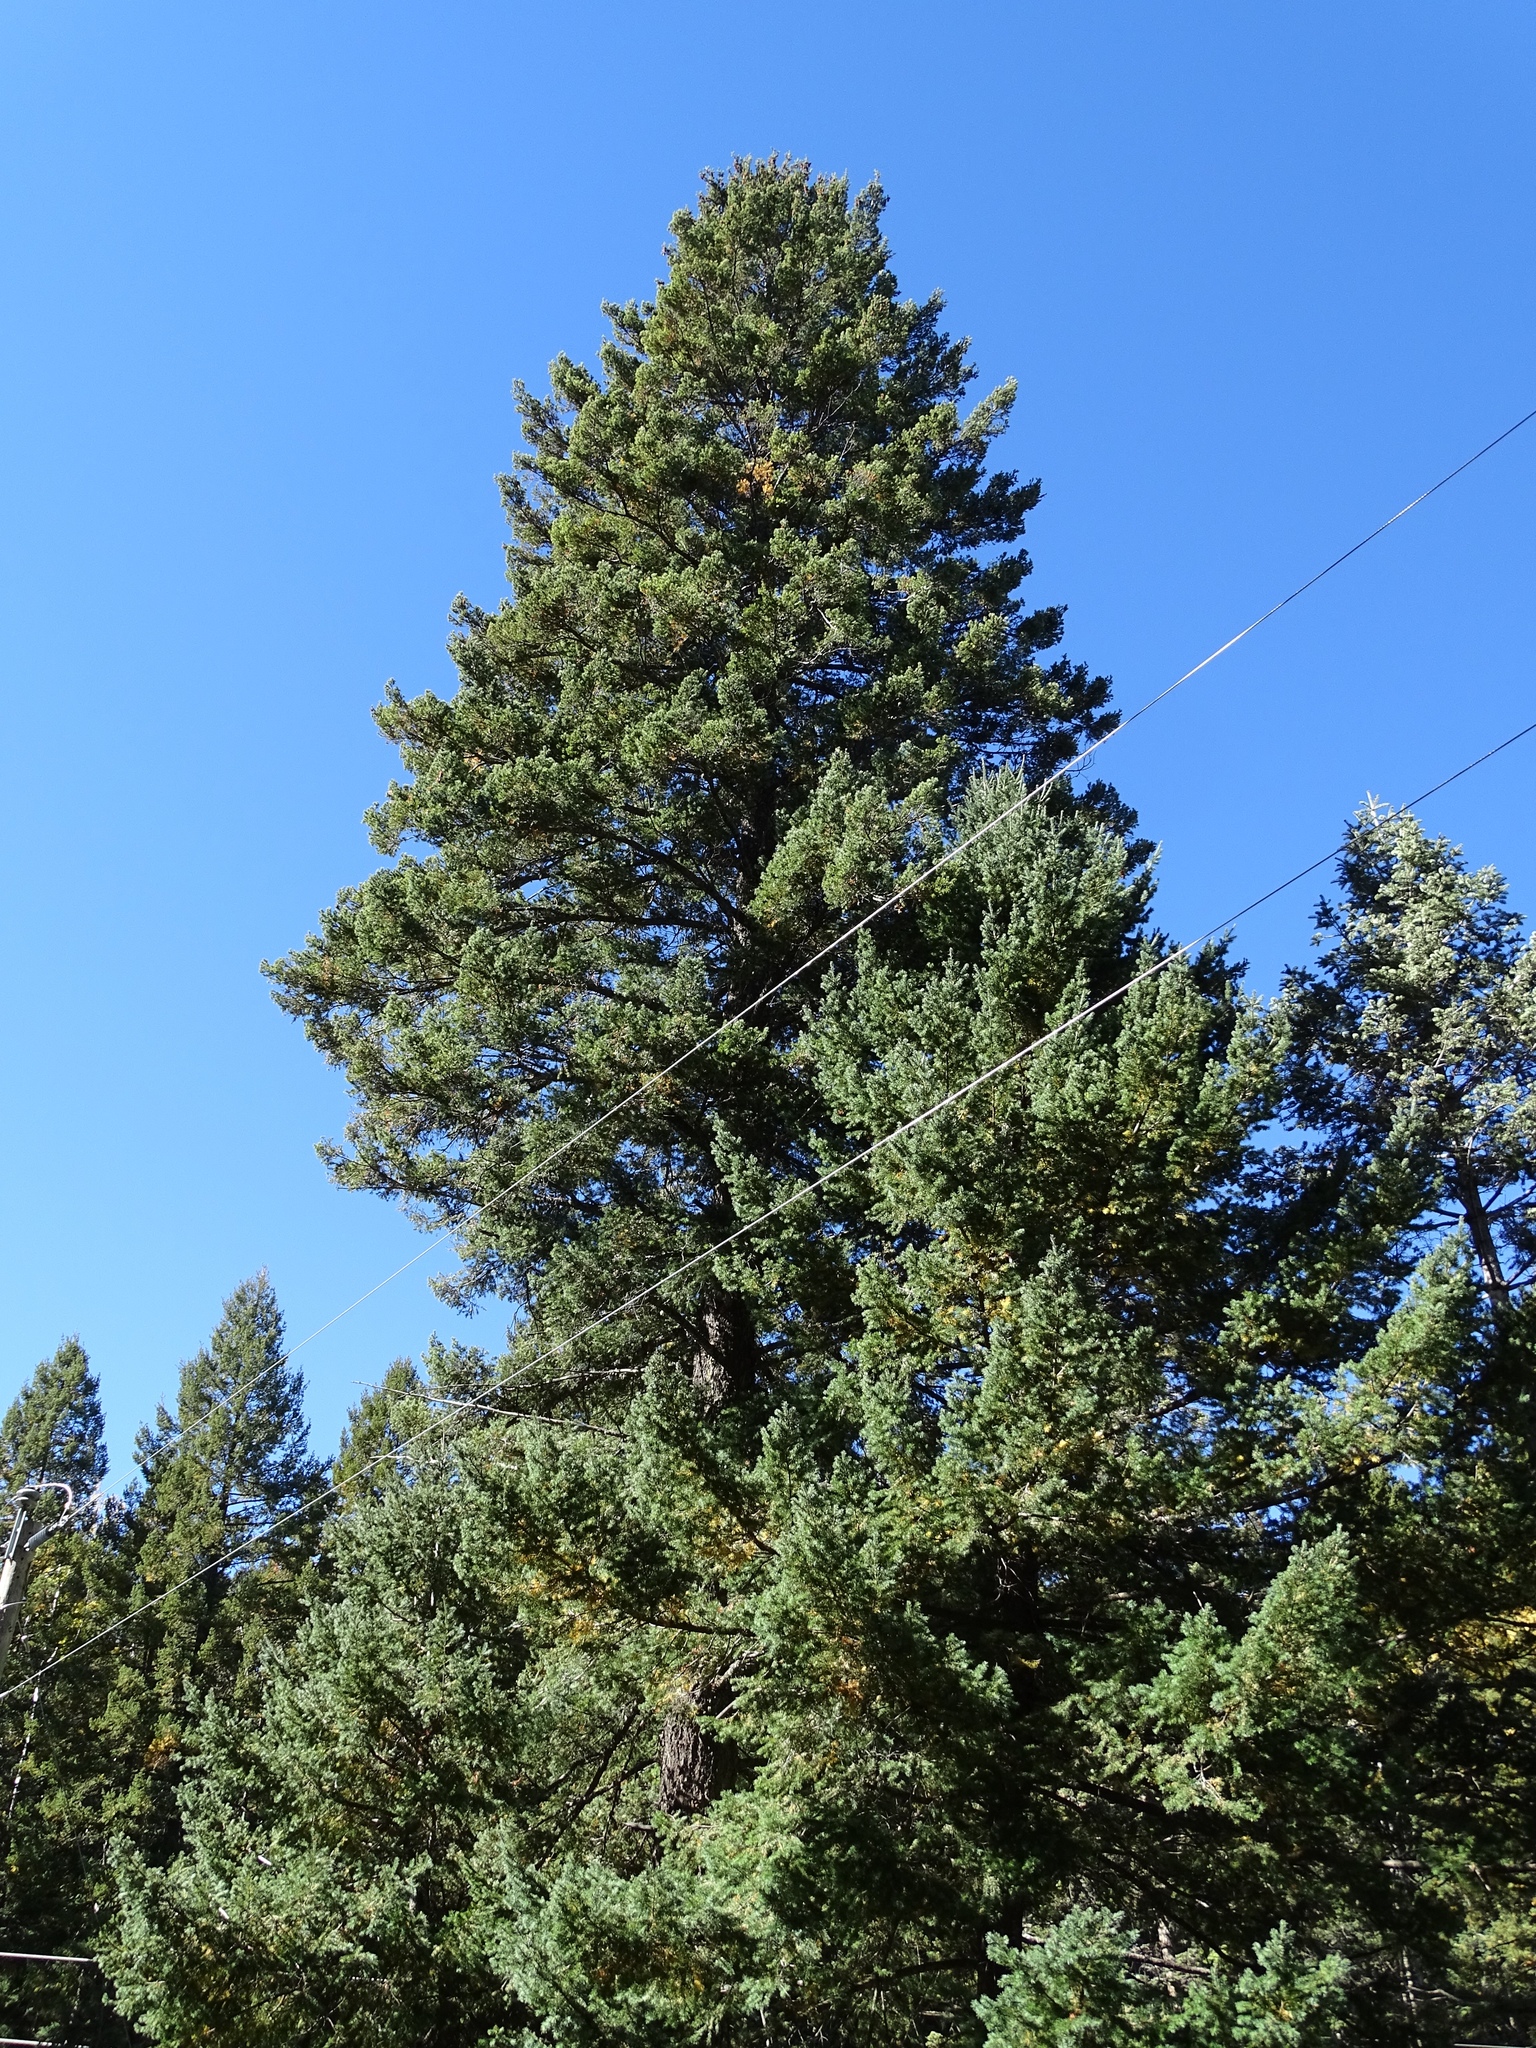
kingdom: Plantae
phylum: Tracheophyta
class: Pinopsida
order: Pinales
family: Pinaceae
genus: Pseudotsuga
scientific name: Pseudotsuga menziesii
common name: Douglas fir
